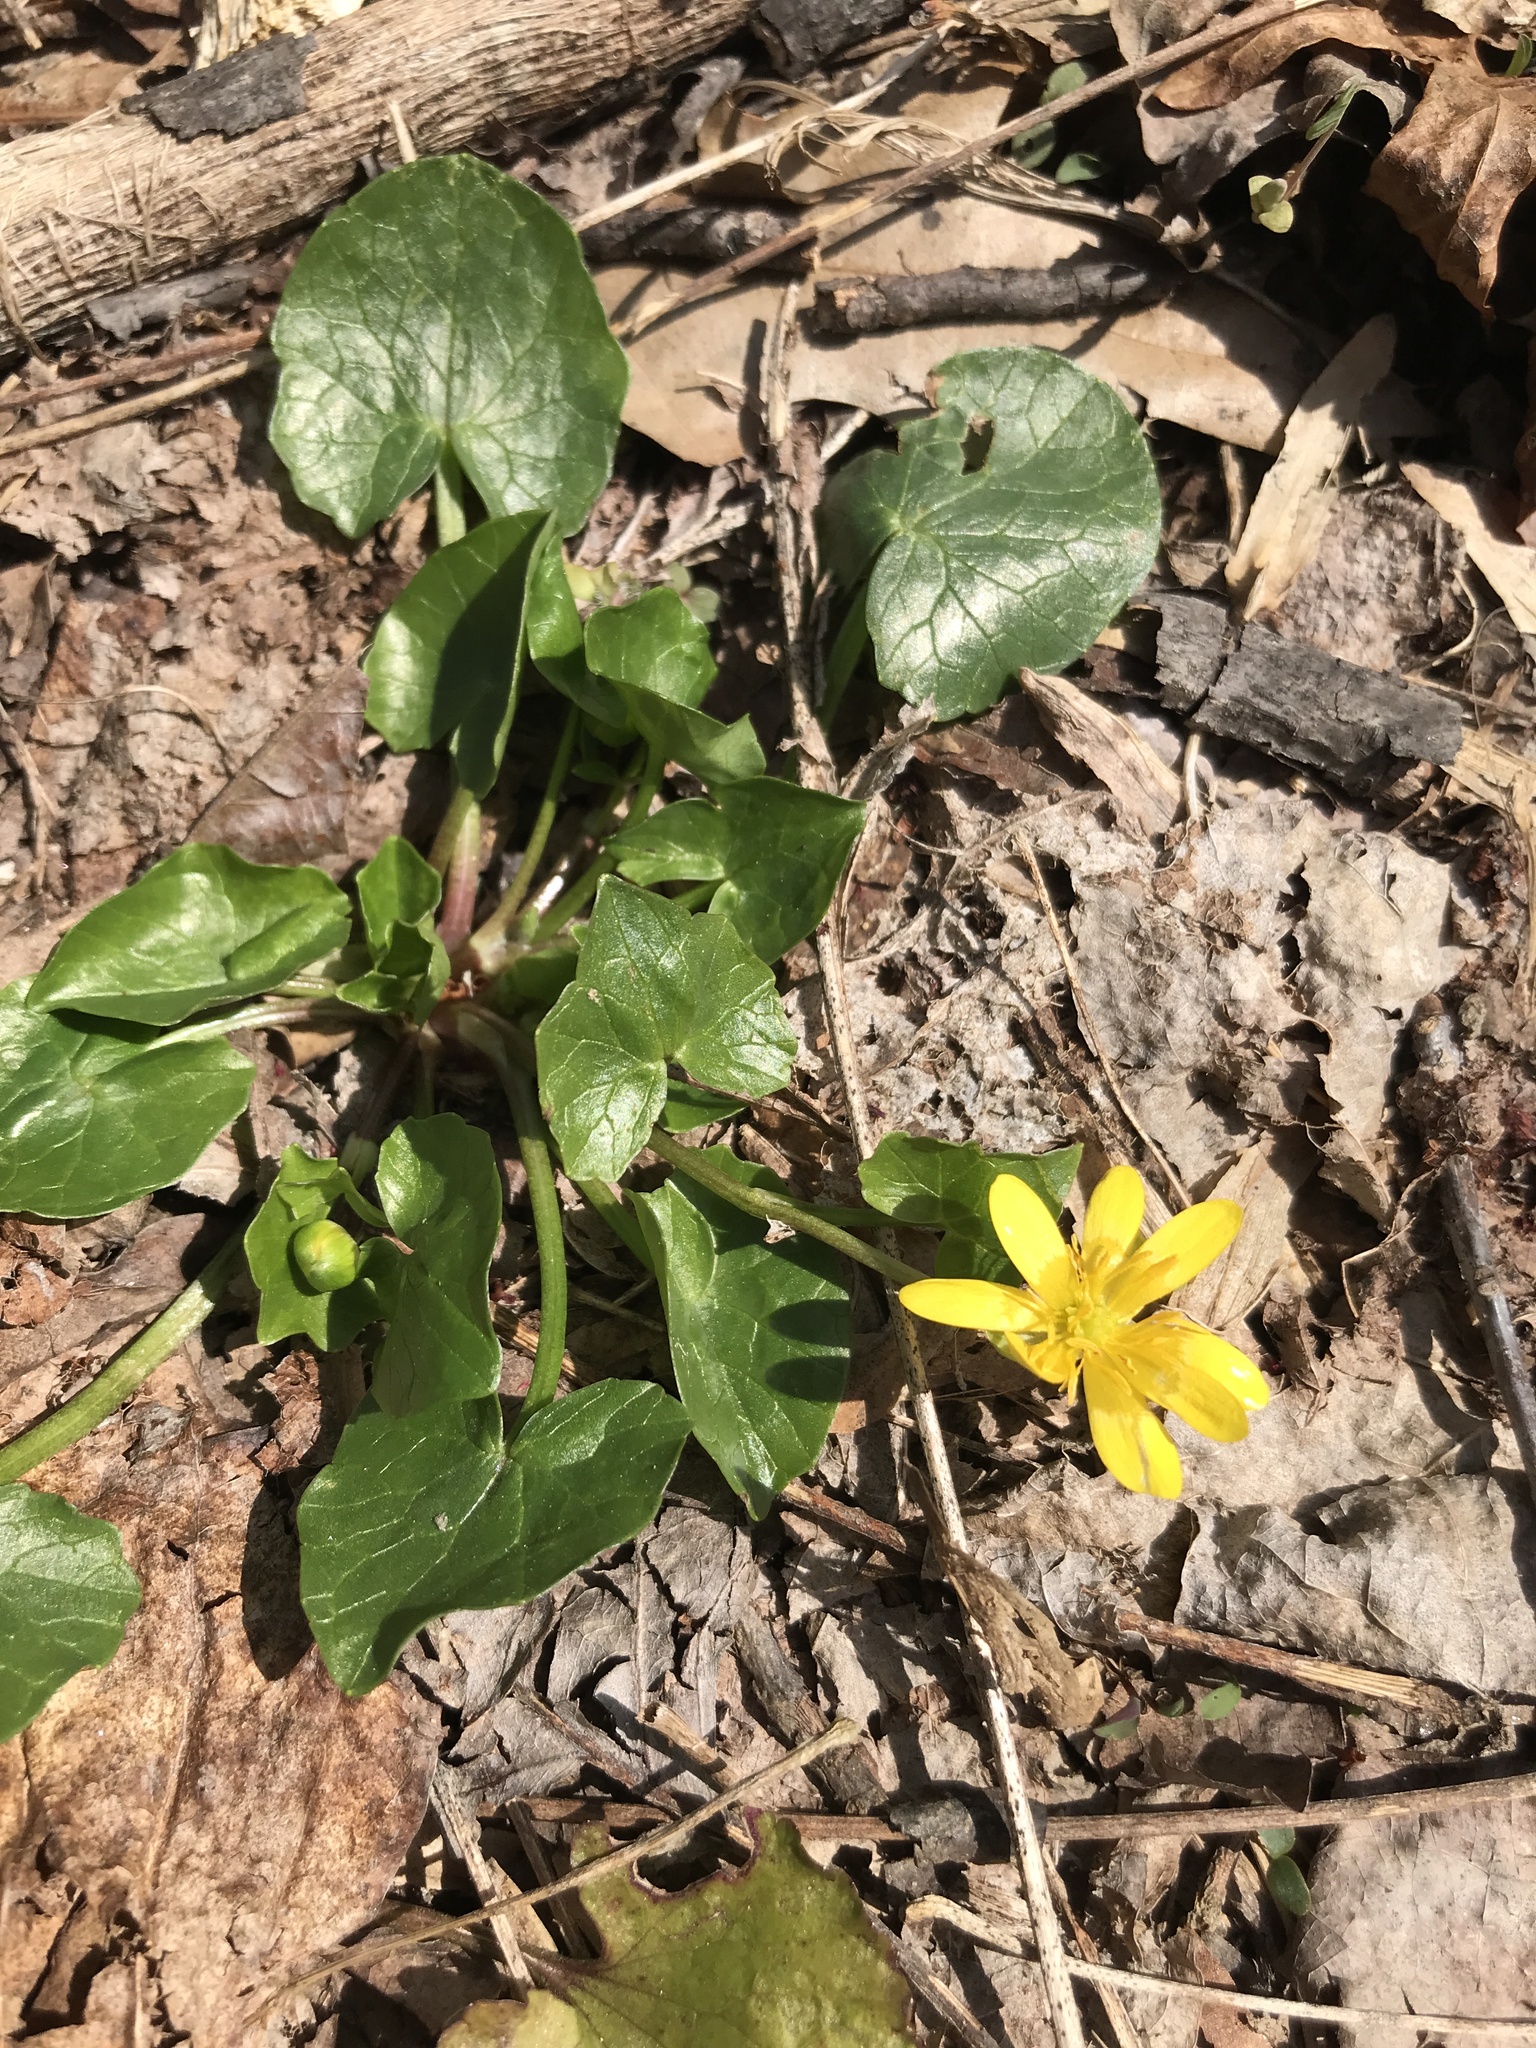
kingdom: Plantae
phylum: Tracheophyta
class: Magnoliopsida
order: Ranunculales
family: Ranunculaceae
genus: Ficaria
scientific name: Ficaria verna
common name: Lesser celandine
